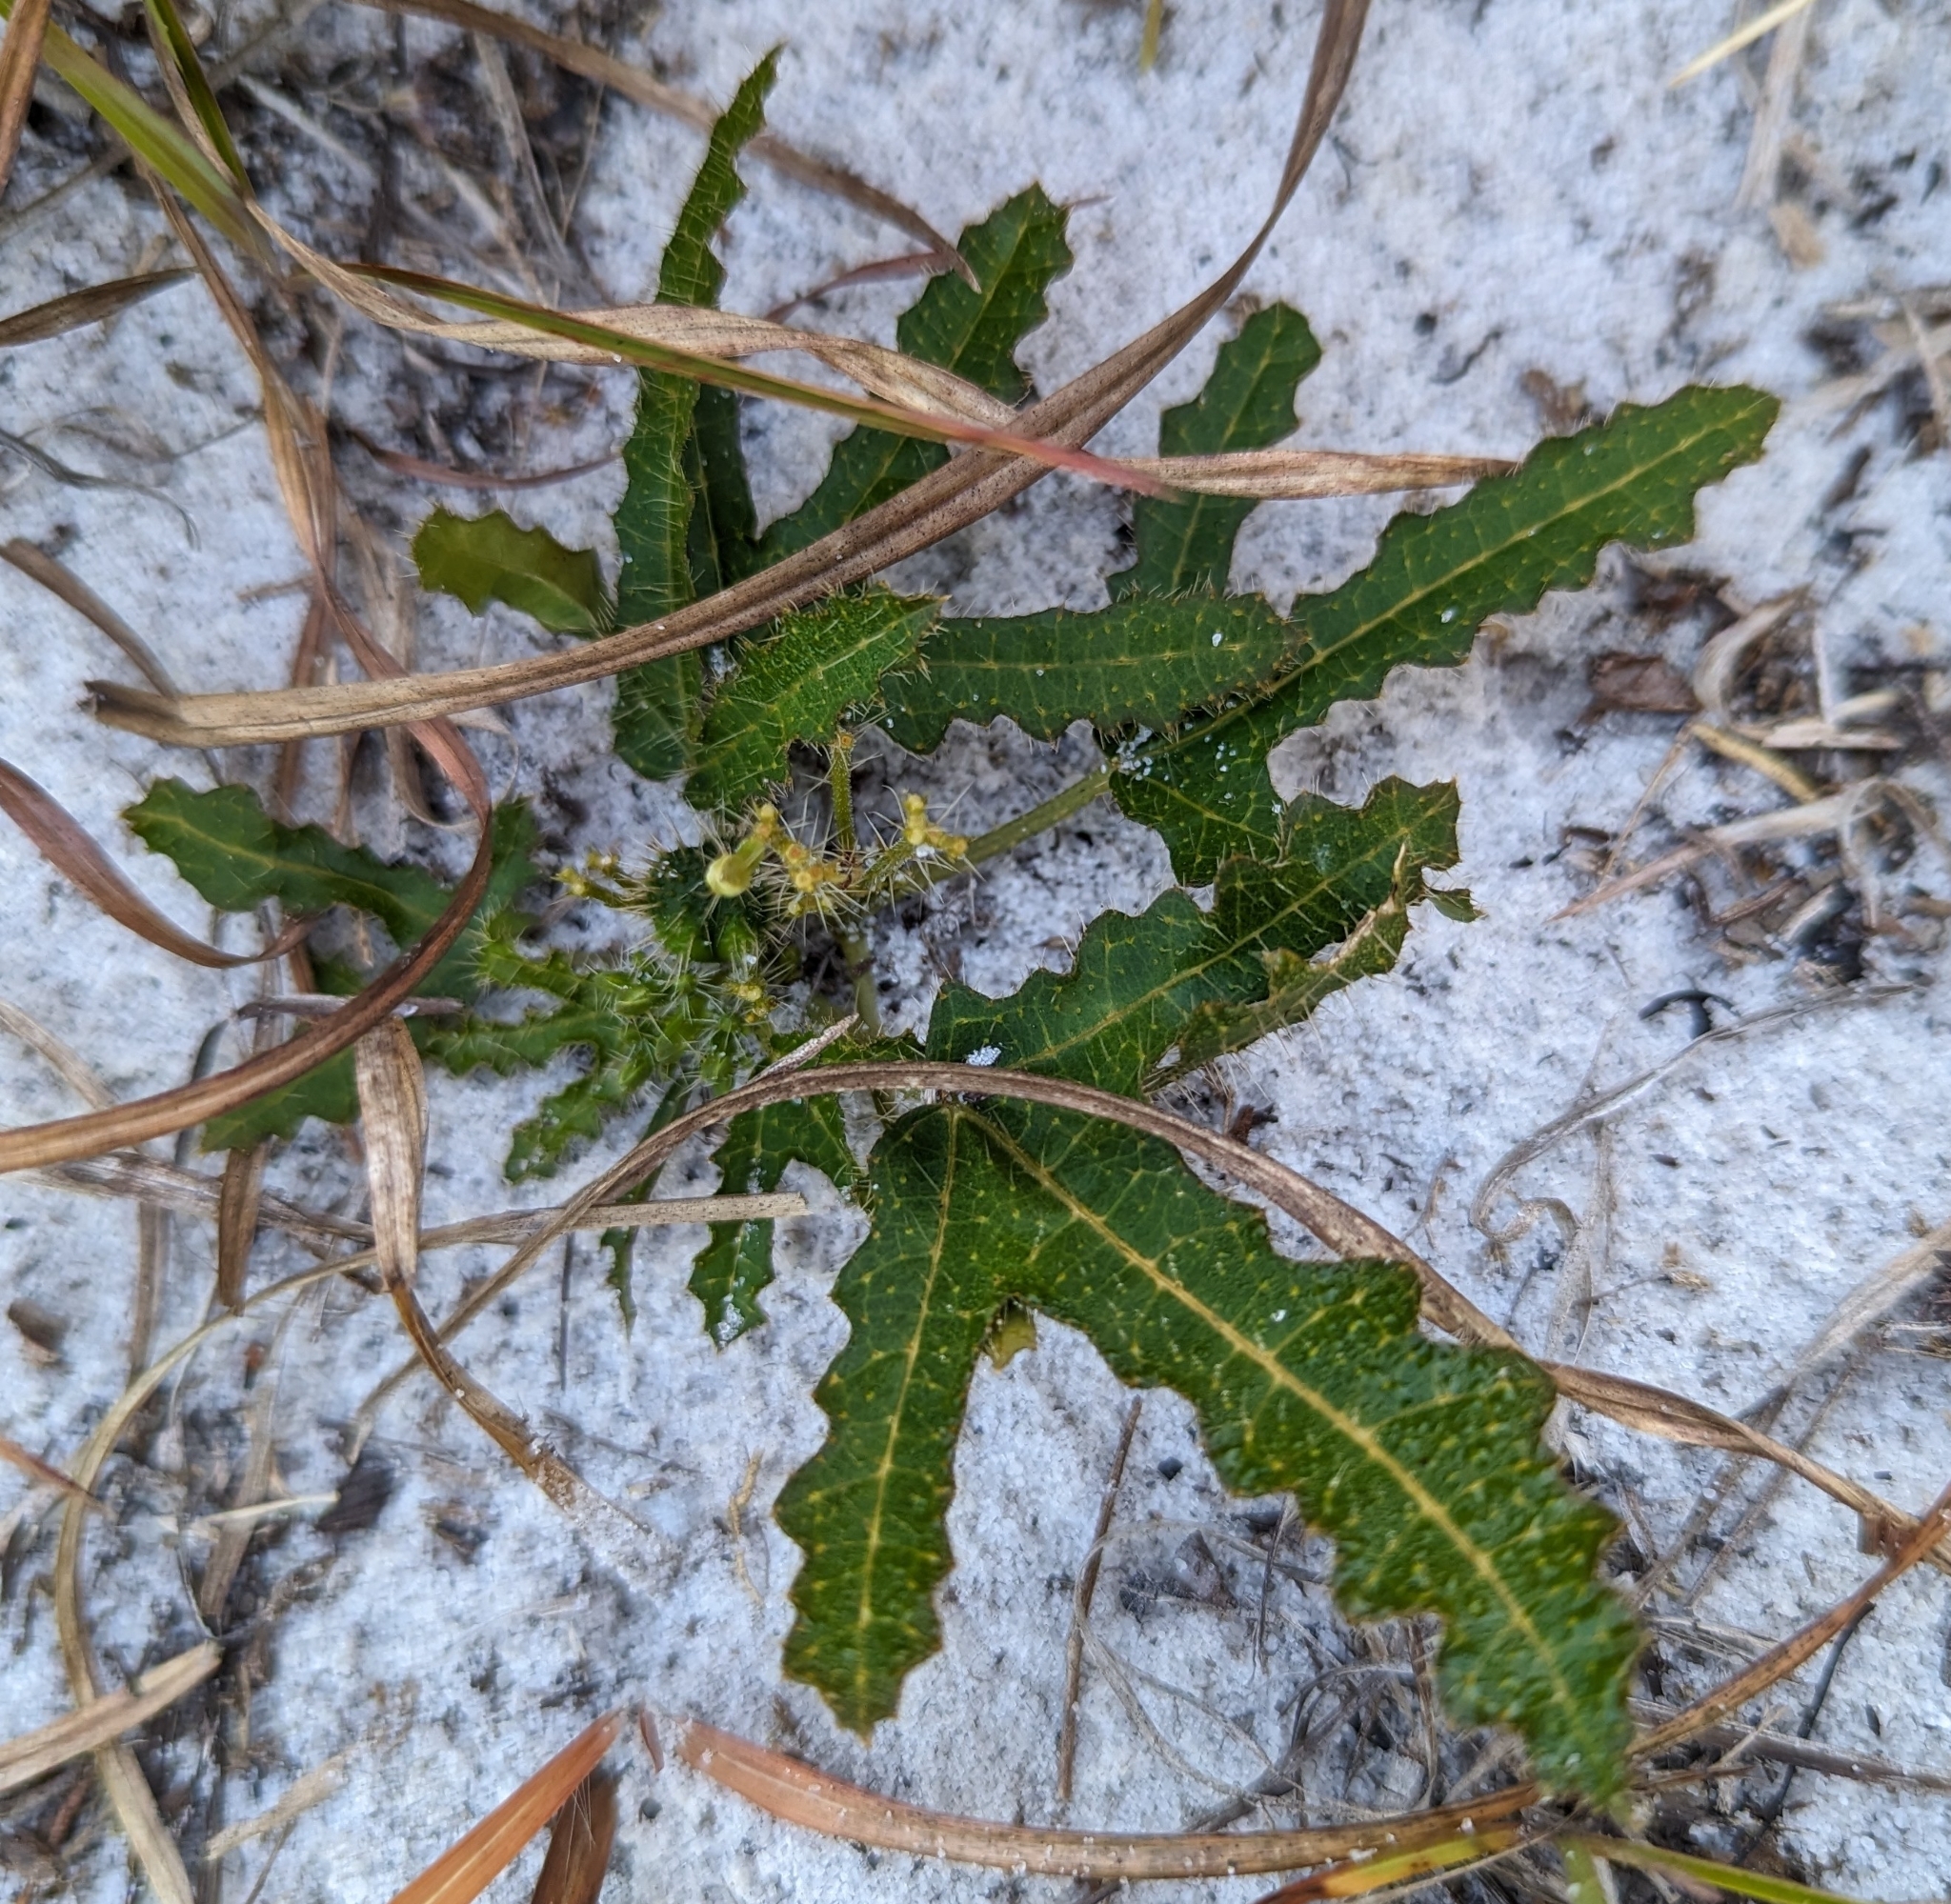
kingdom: Plantae
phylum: Tracheophyta
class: Magnoliopsida
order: Malpighiales
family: Euphorbiaceae
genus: Cnidoscolus
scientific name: Cnidoscolus stimulosus
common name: Bull-nettle
